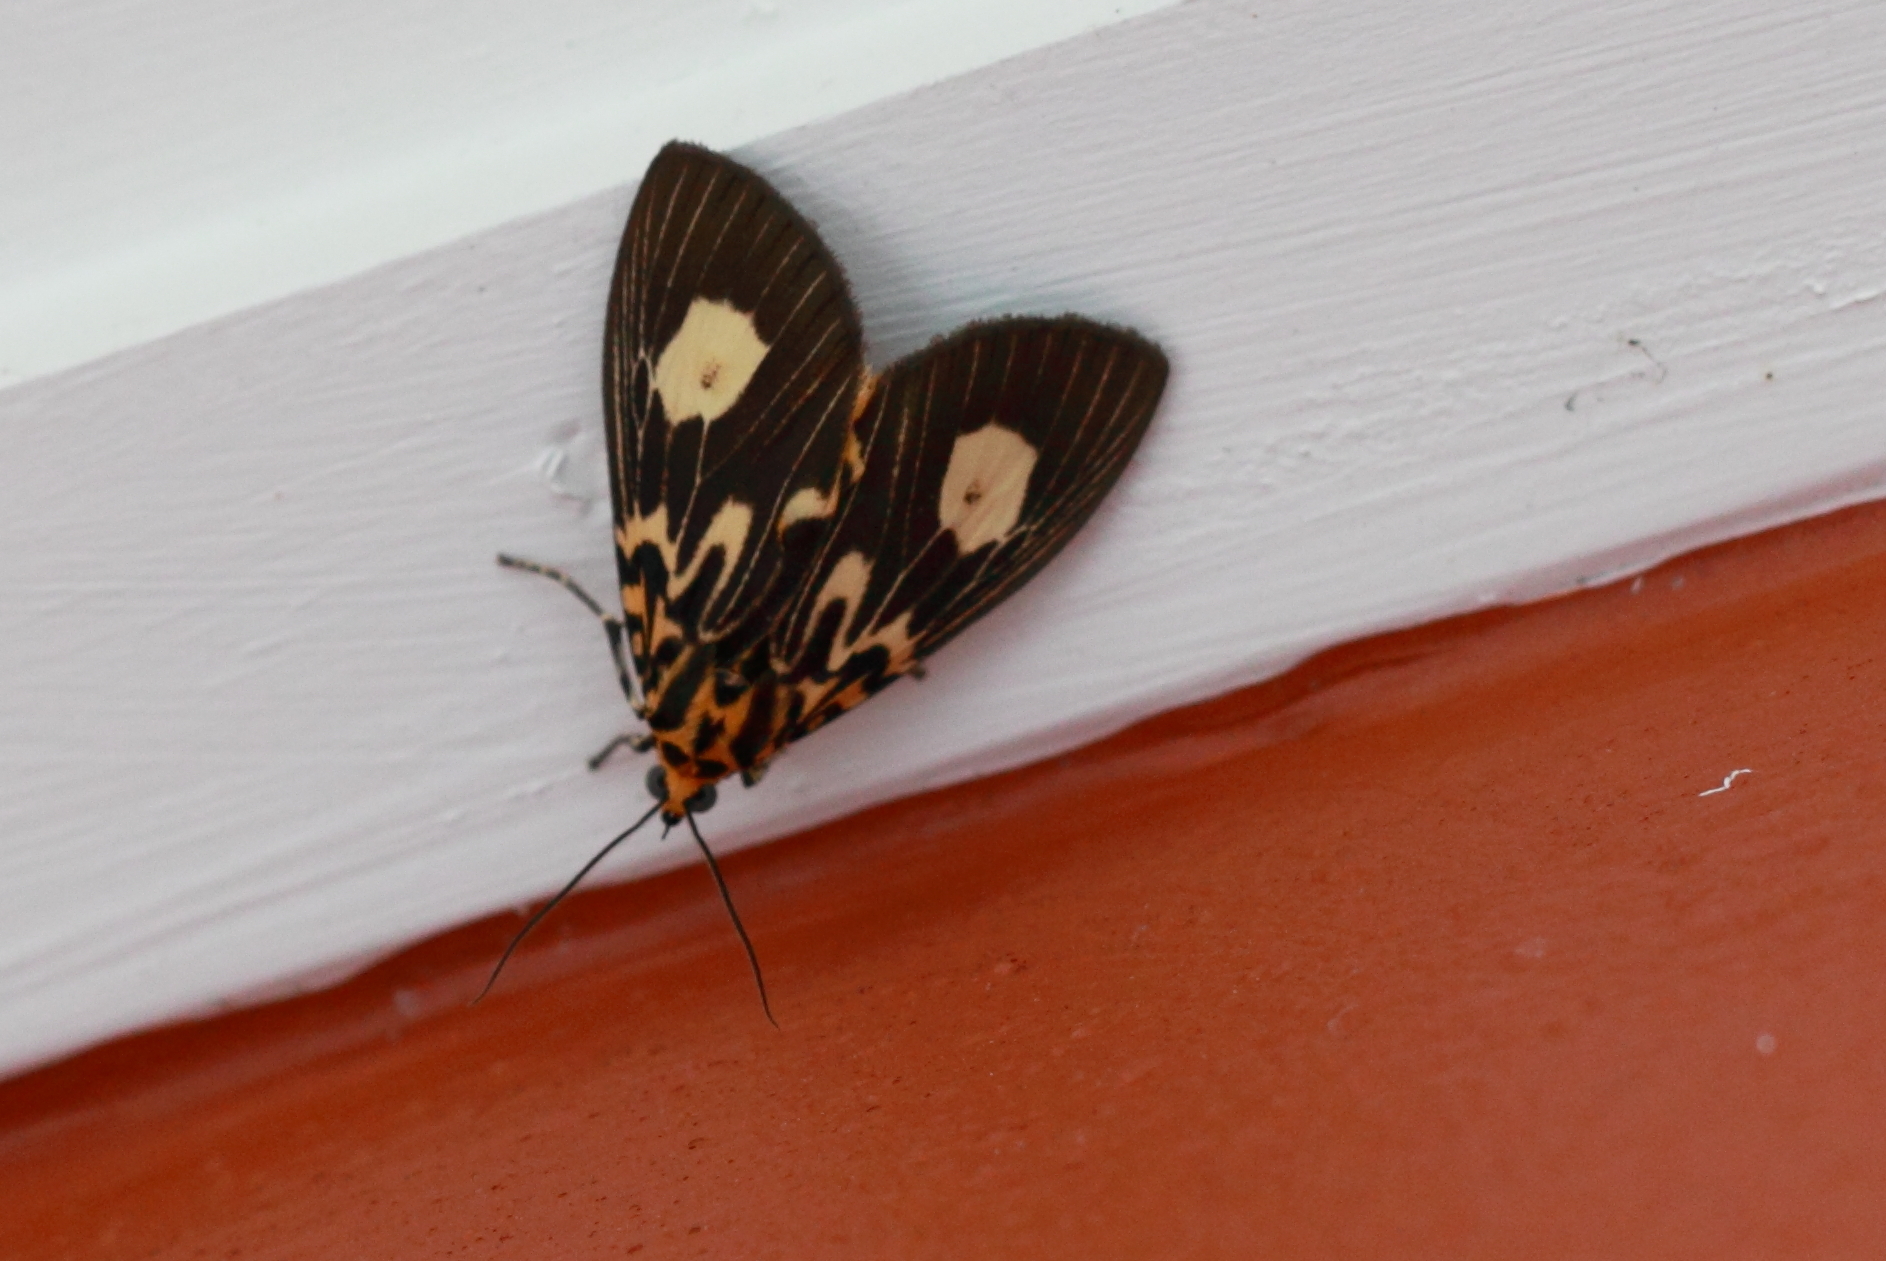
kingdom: Animalia
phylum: Arthropoda
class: Insecta
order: Lepidoptera
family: Erebidae
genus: Asota
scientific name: Asota plagiata
